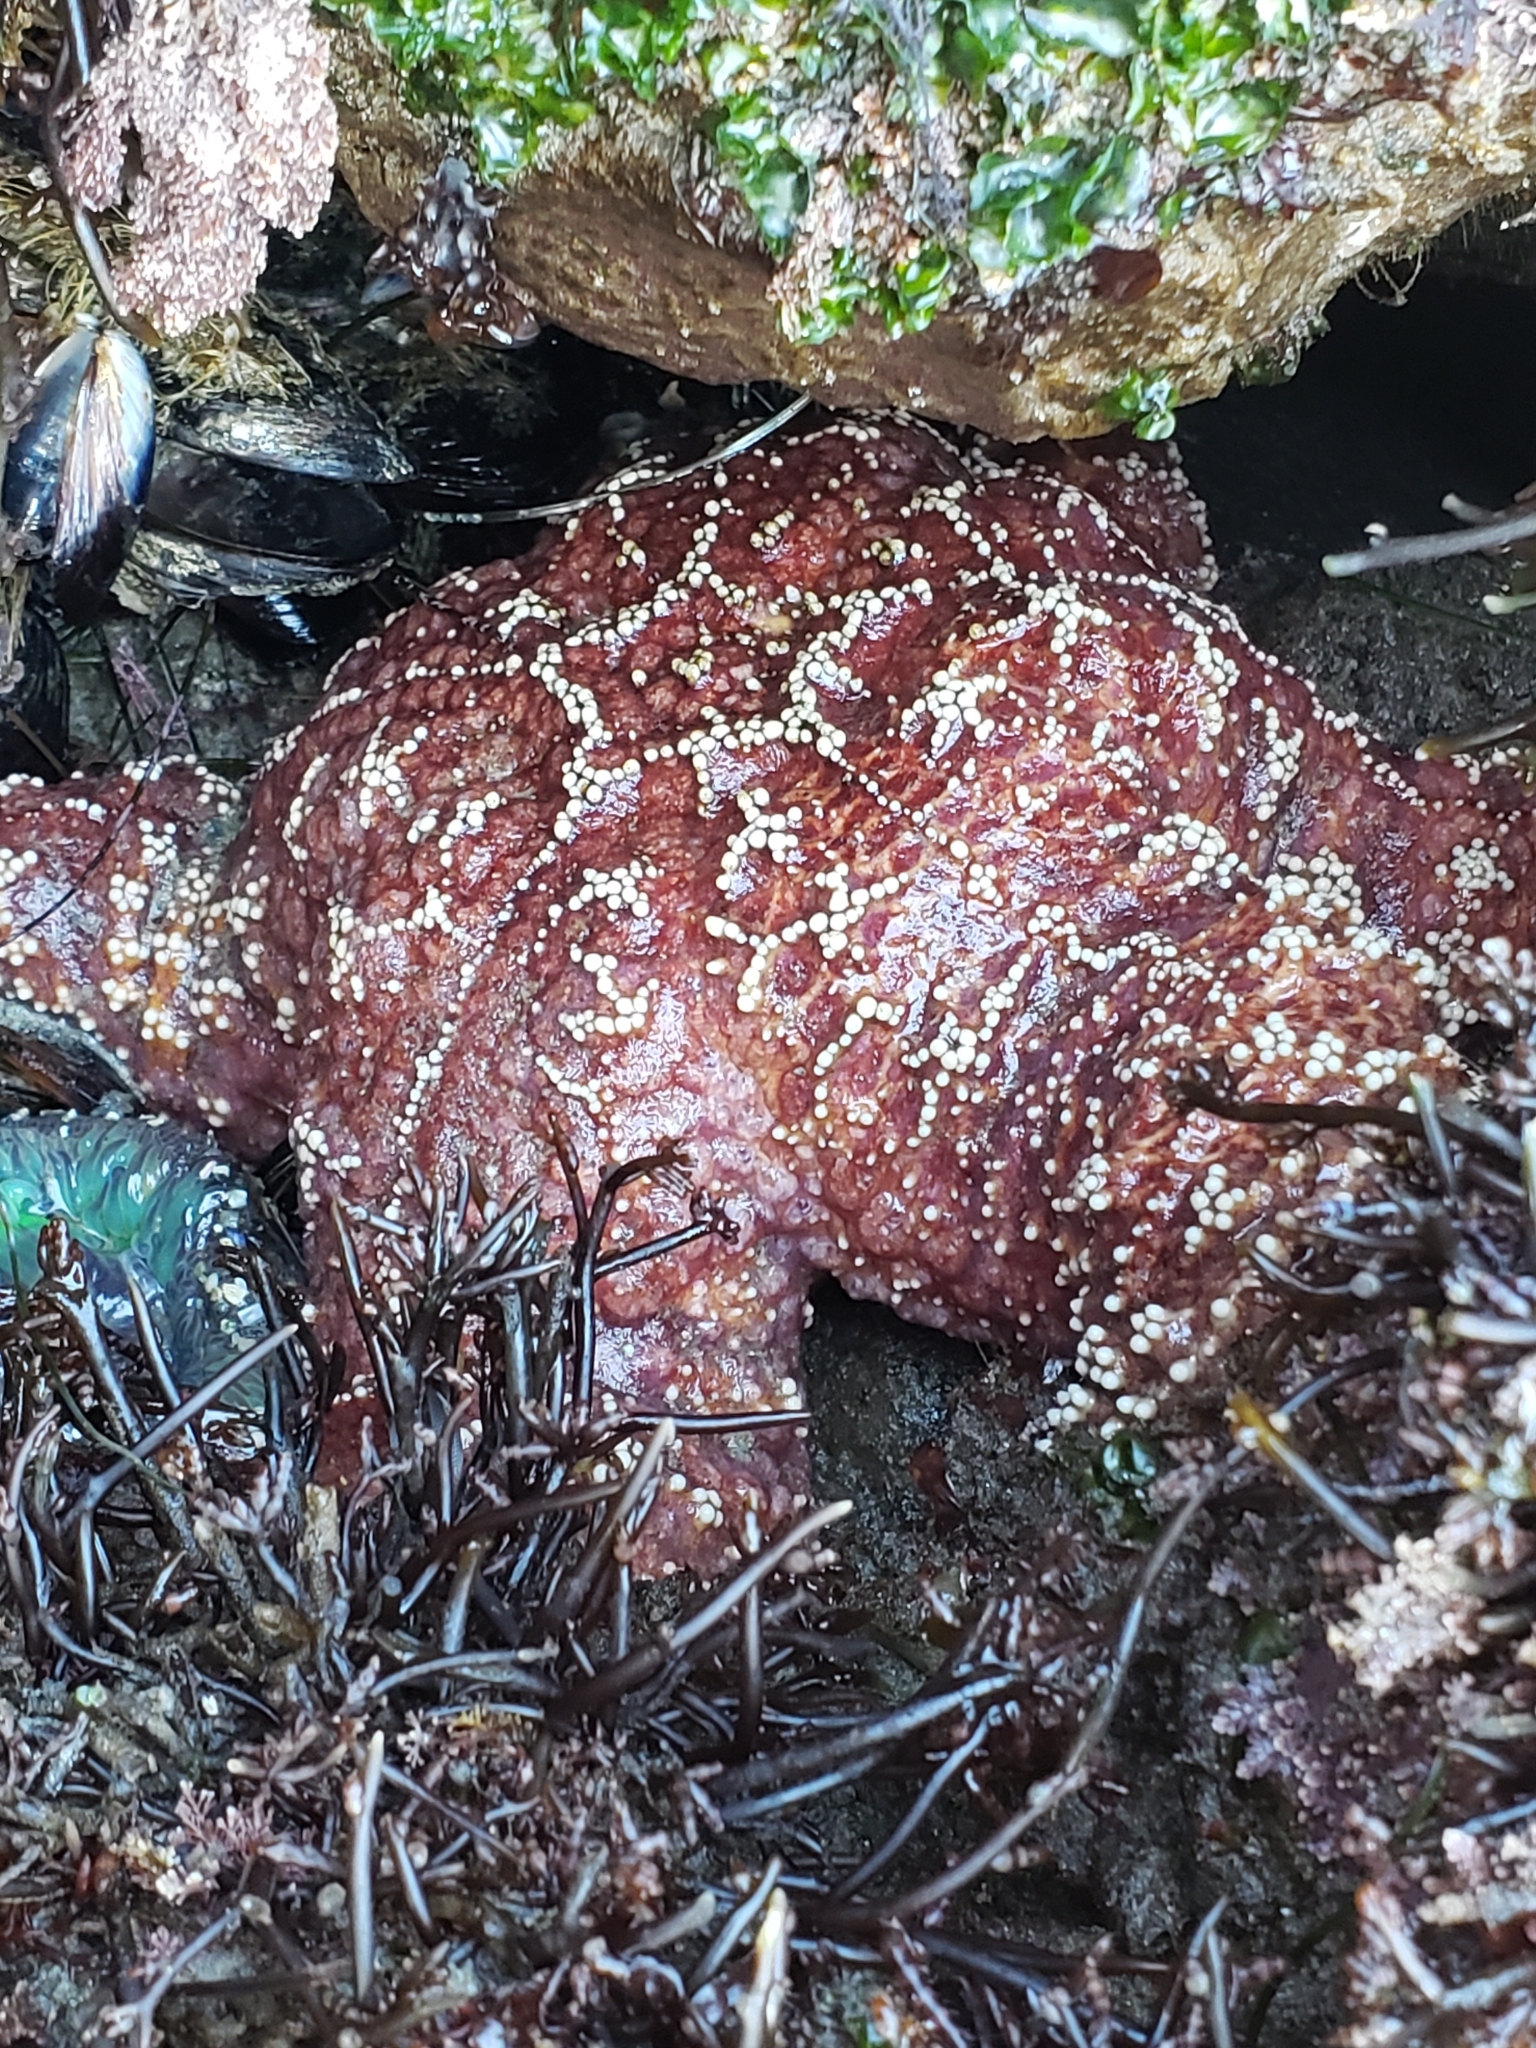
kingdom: Animalia
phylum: Echinodermata
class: Asteroidea
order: Forcipulatida
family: Asteriidae
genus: Pisaster
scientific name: Pisaster ochraceus
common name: Ochre stars
